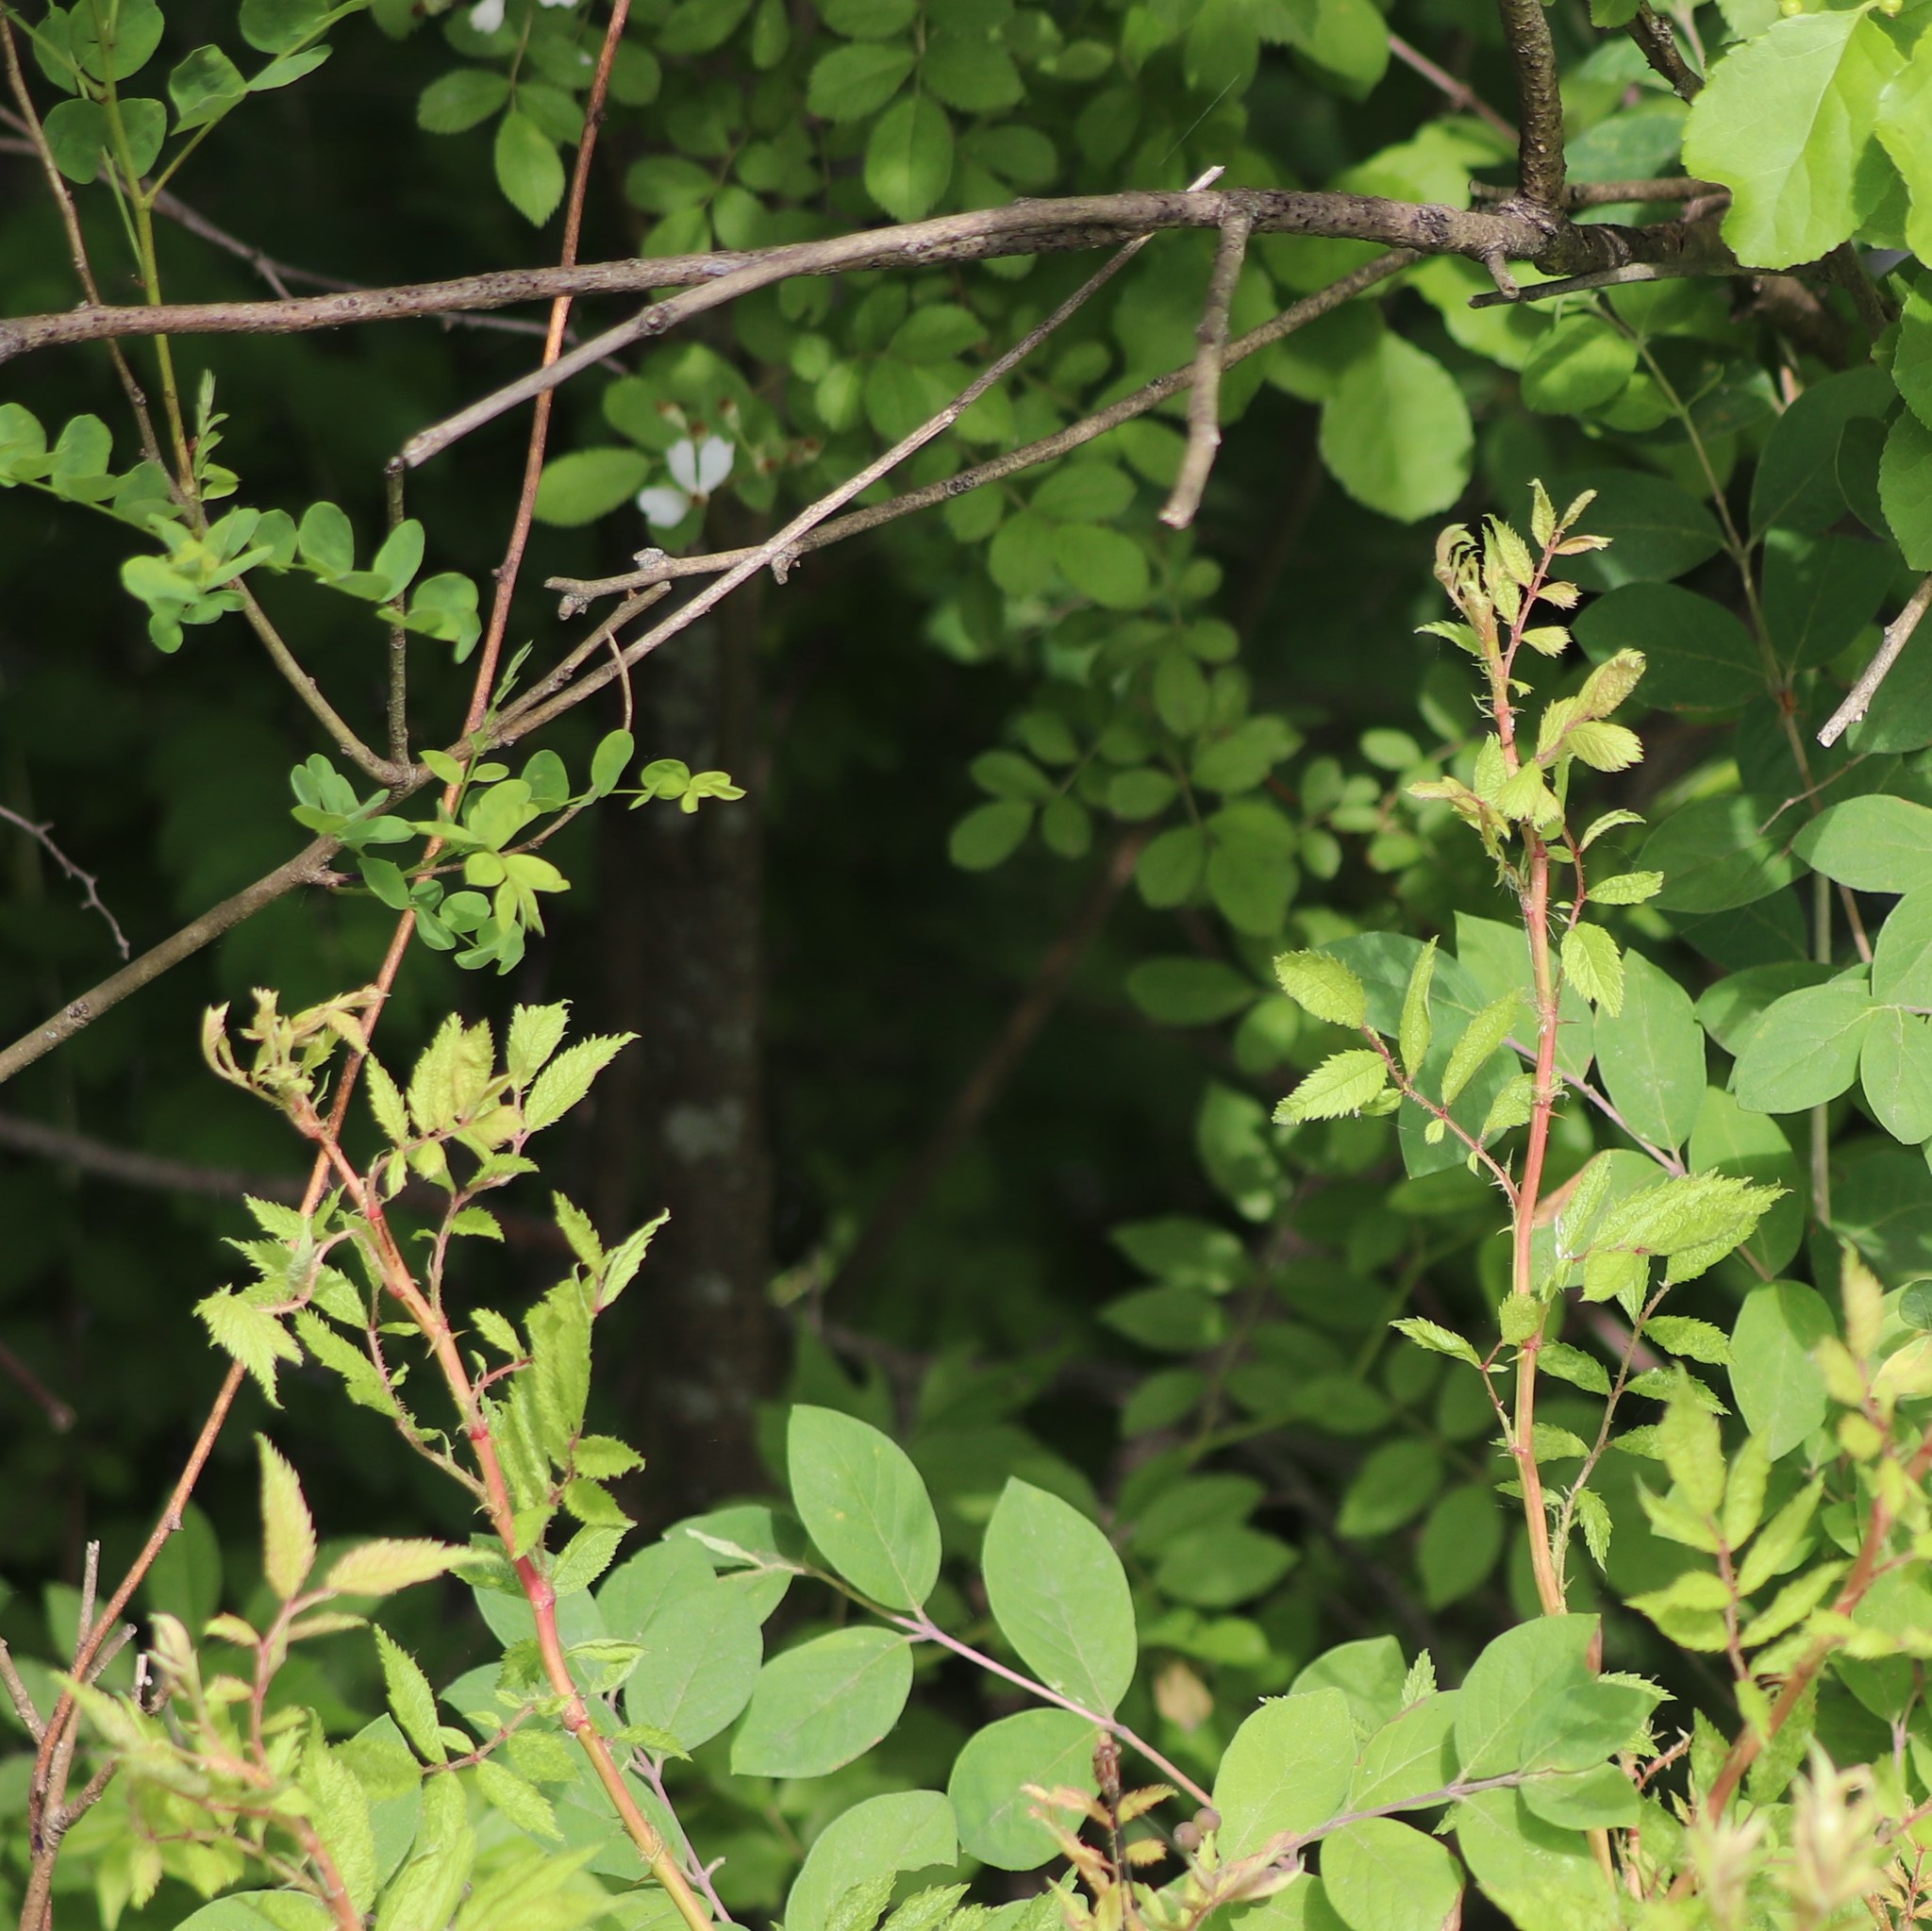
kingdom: Viruses
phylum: Negarnaviricota
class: Ellioviricetes
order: Bunyavirales
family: Fimoviridae
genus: Emaravirus
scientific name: Emaravirus rosae
